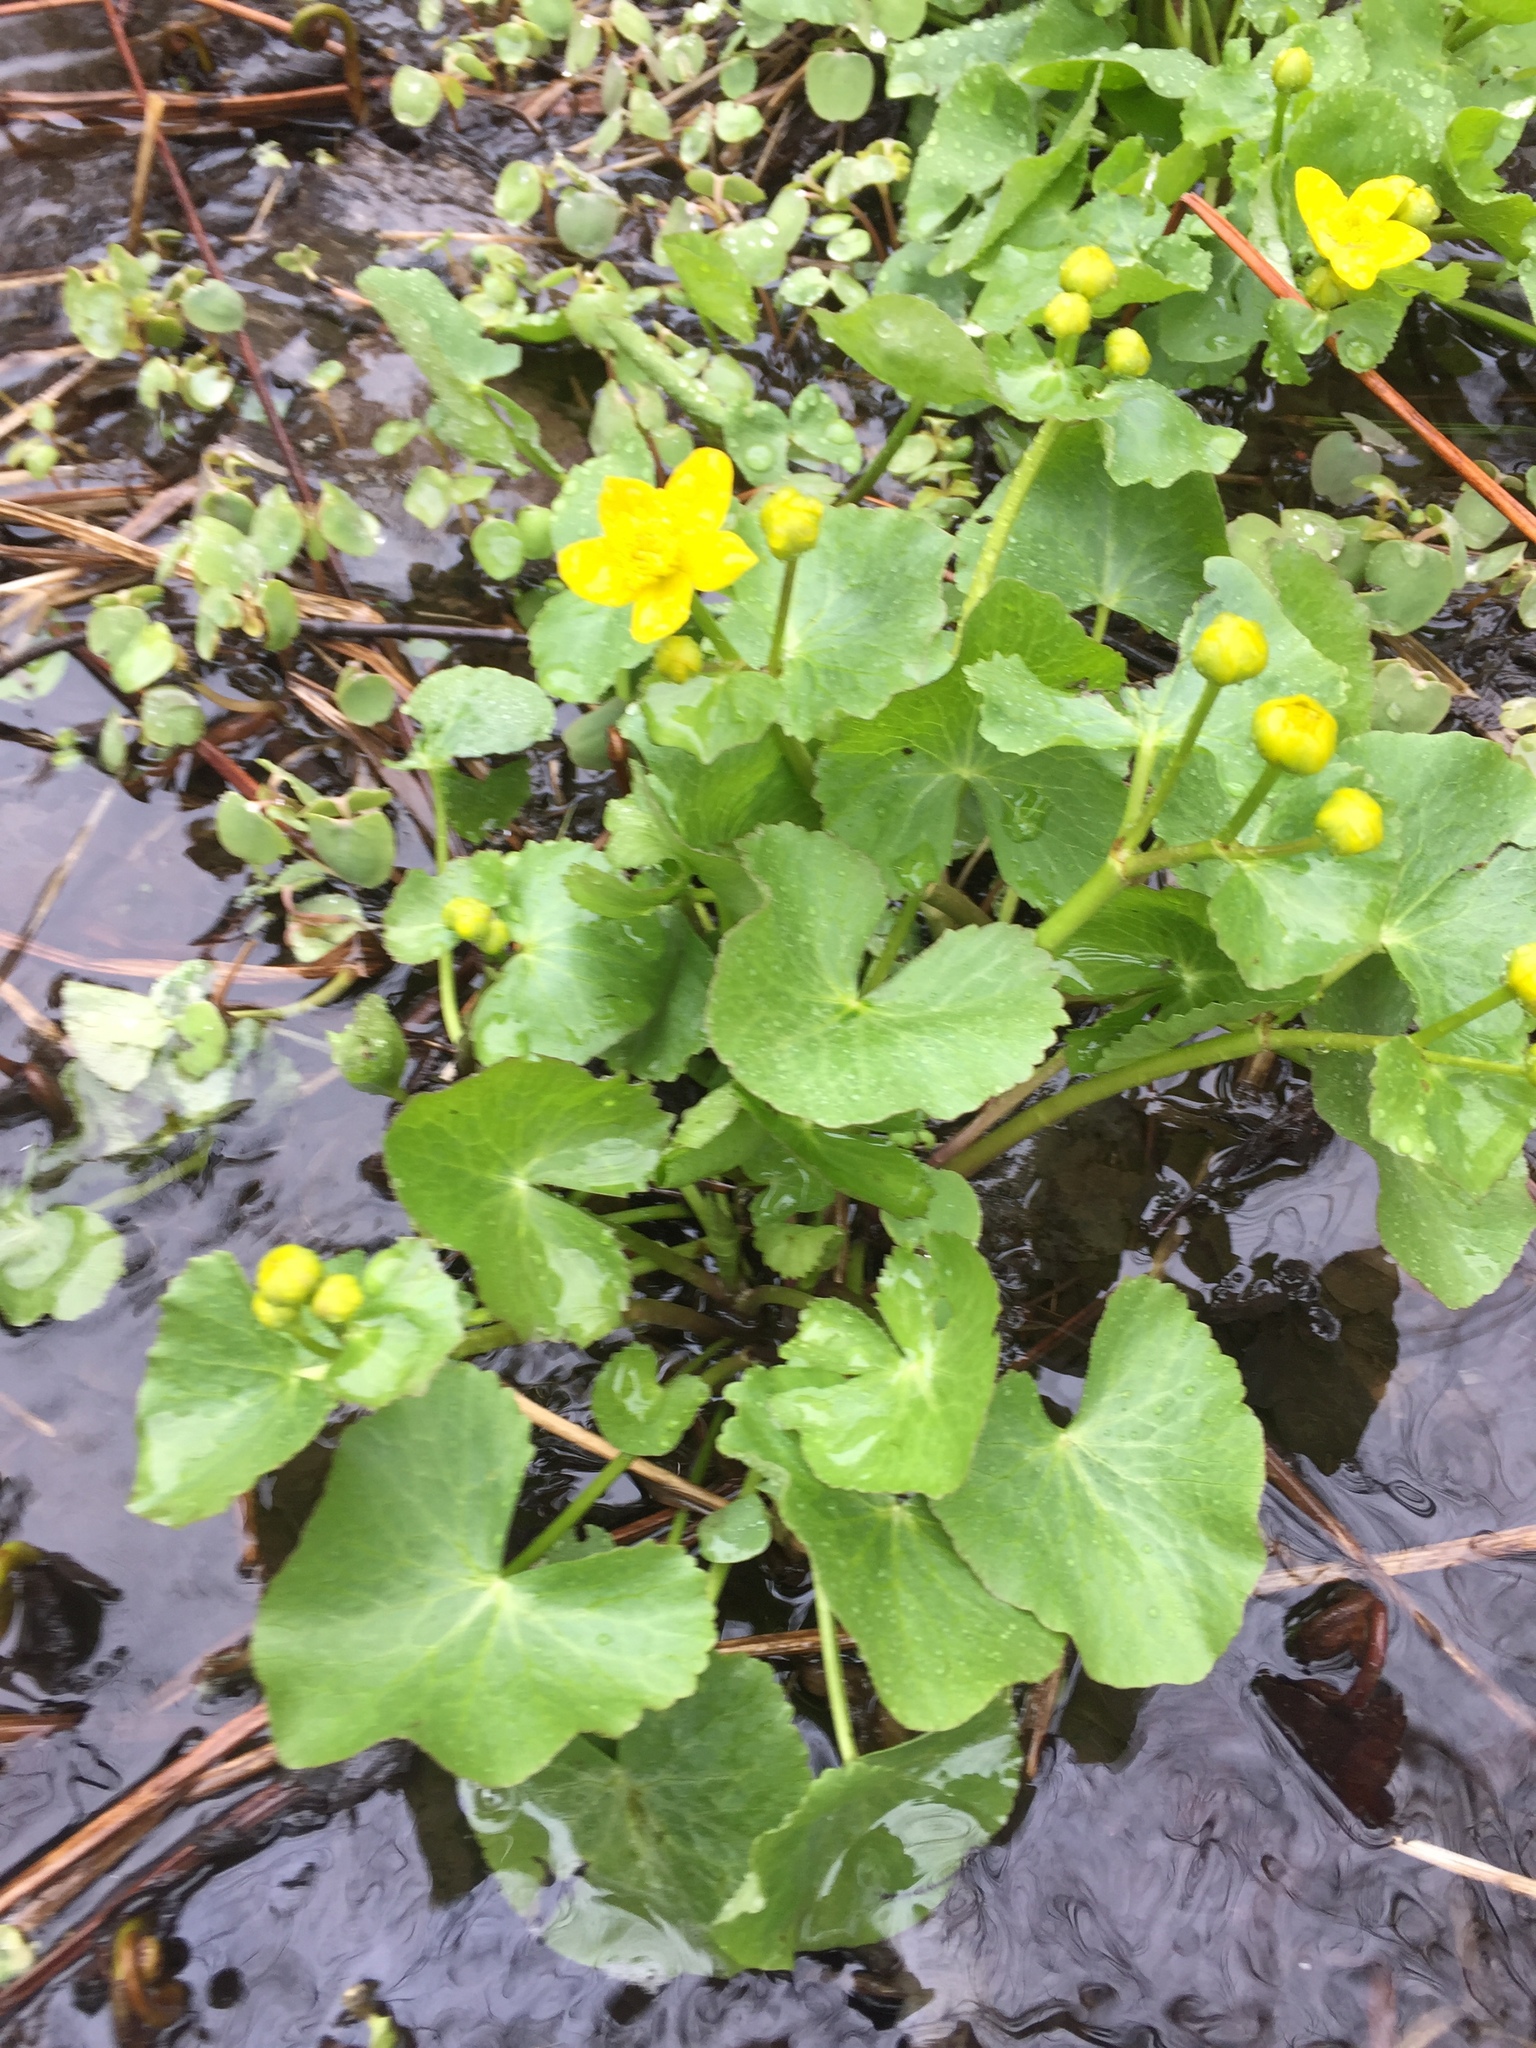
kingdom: Plantae
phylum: Tracheophyta
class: Magnoliopsida
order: Ranunculales
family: Ranunculaceae
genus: Caltha
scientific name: Caltha palustris
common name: Marsh marigold
